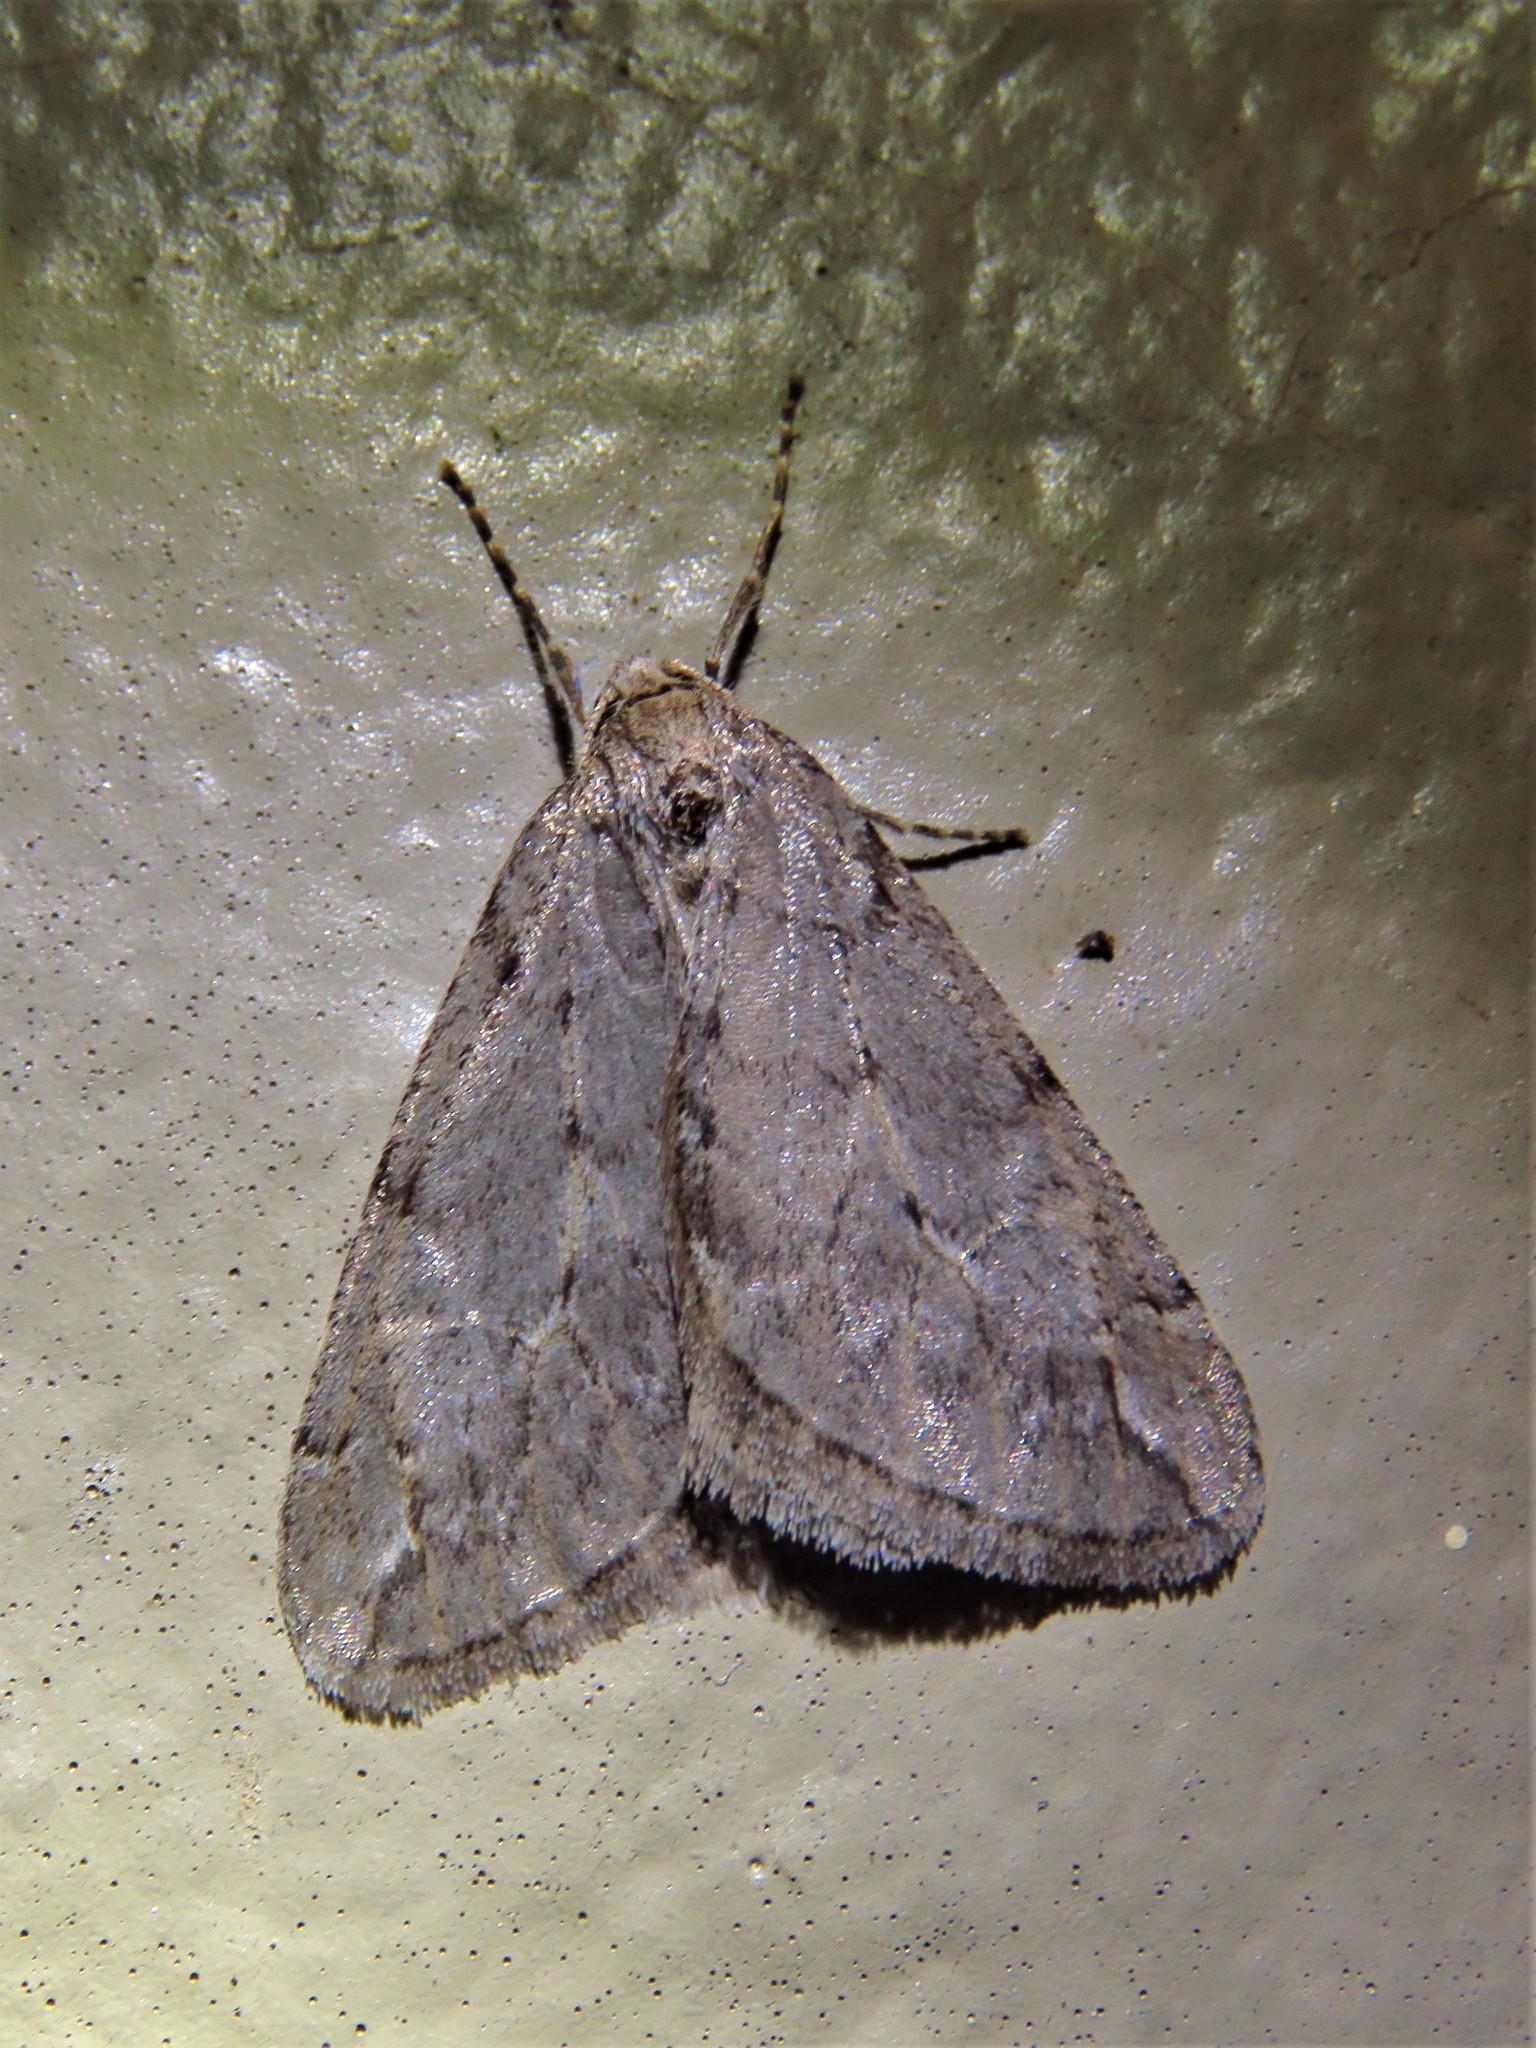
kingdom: Animalia
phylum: Arthropoda
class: Insecta
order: Lepidoptera
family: Geometridae
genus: Paleacrita
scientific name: Paleacrita vernata
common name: Spring cankerworm
